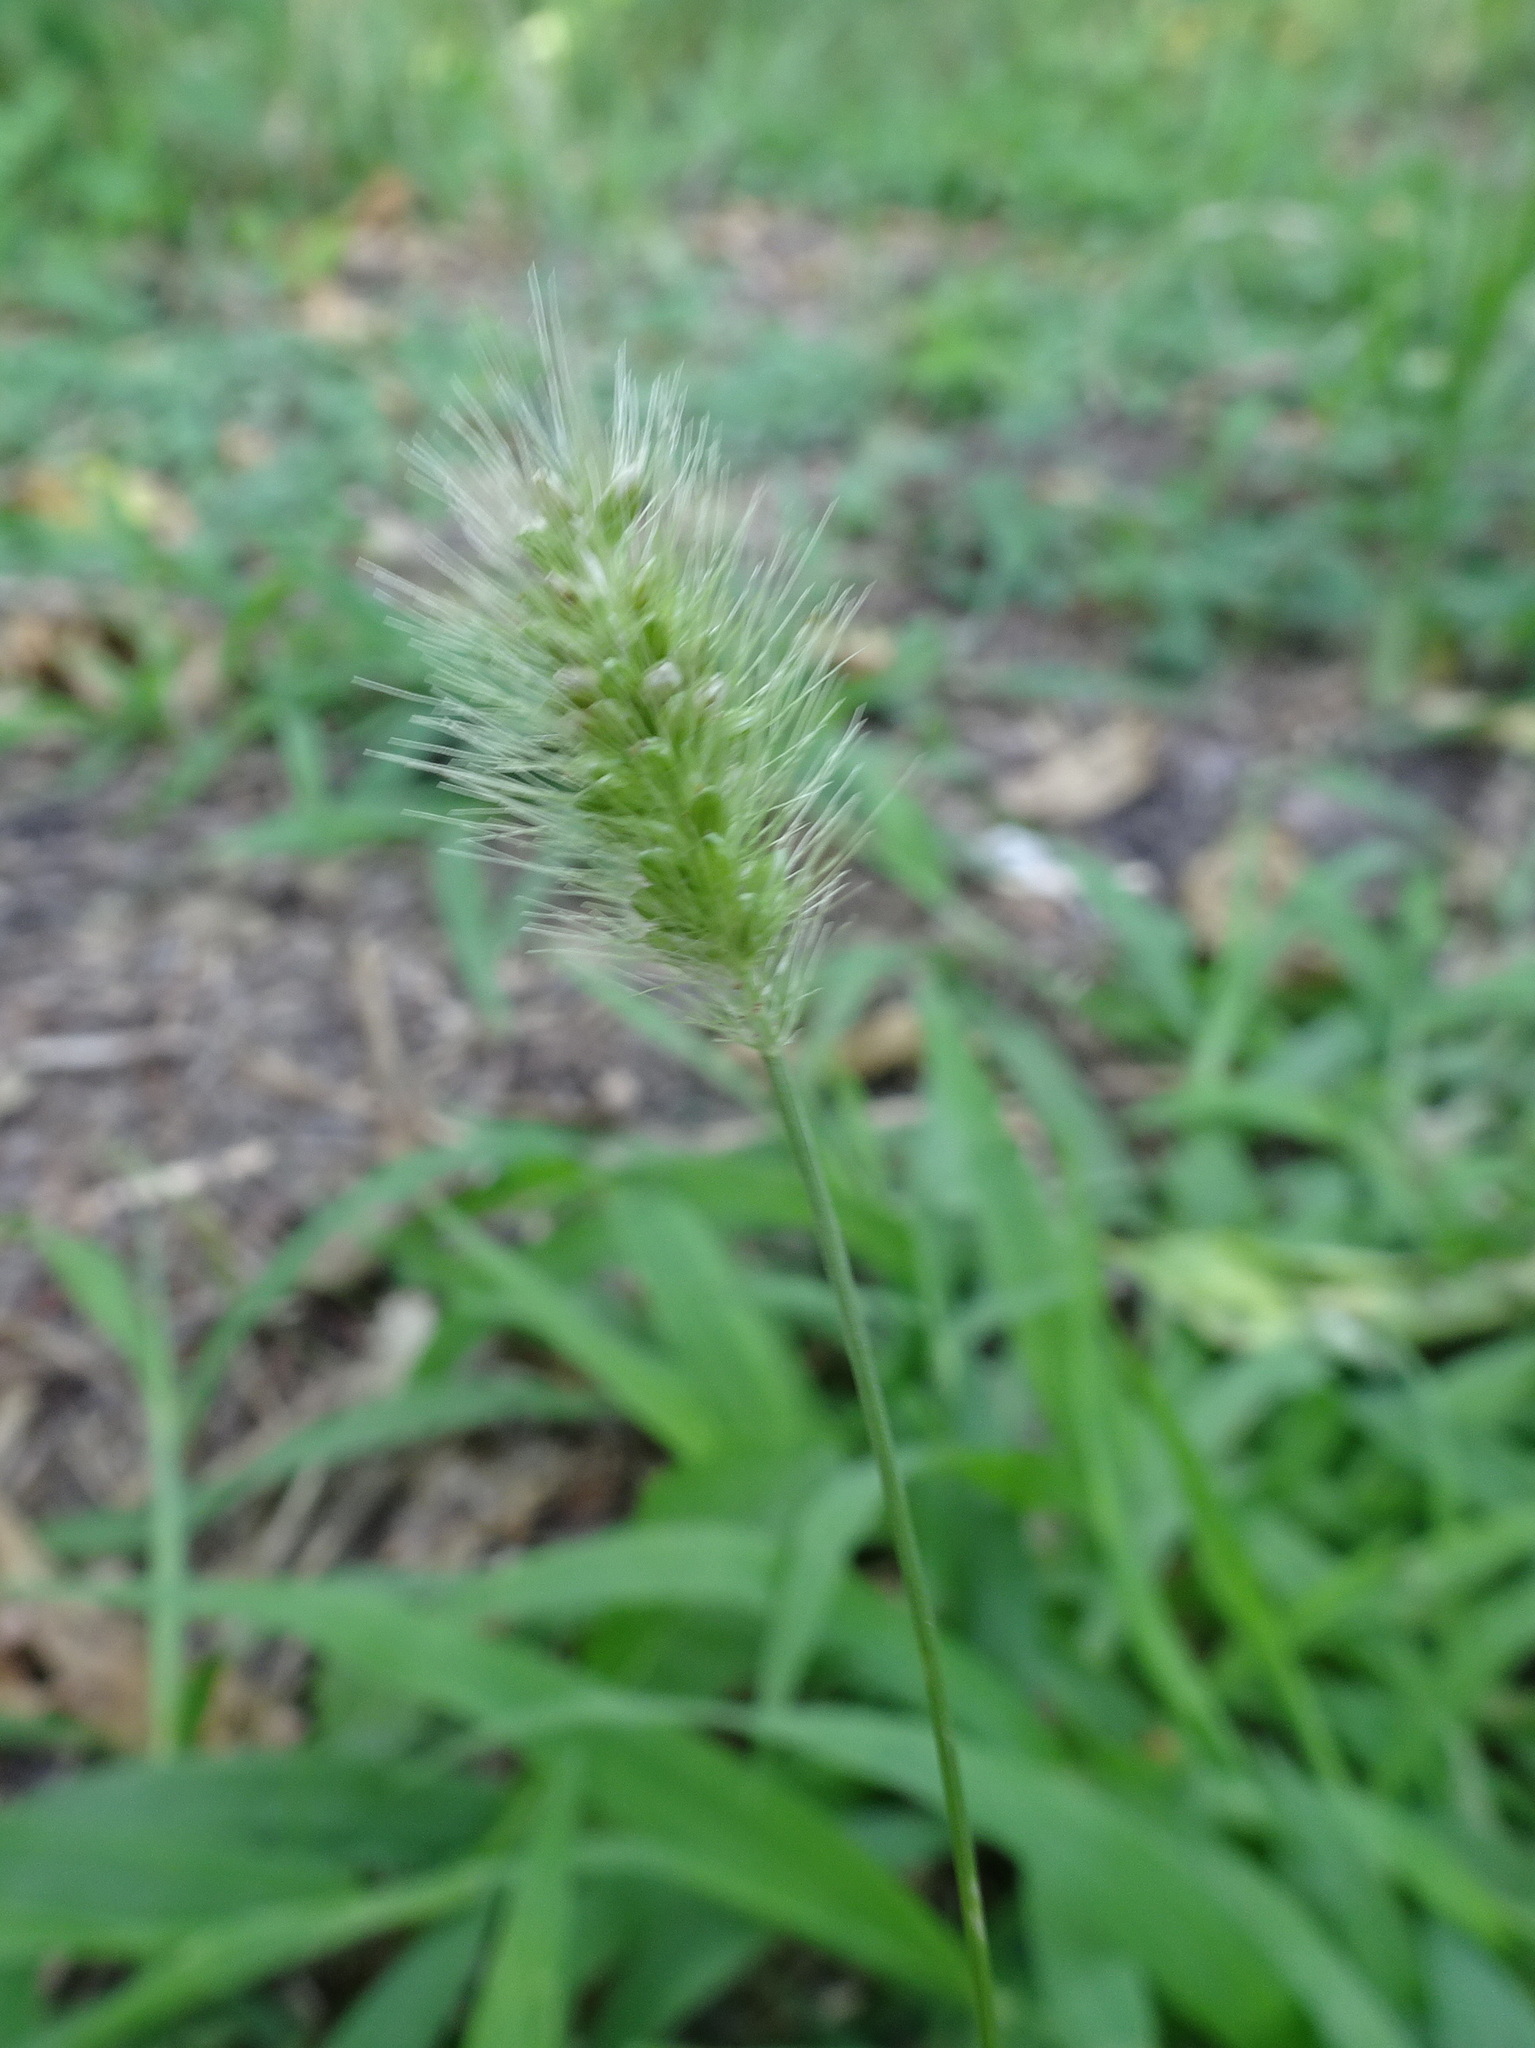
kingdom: Plantae
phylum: Tracheophyta
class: Liliopsida
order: Poales
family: Poaceae
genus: Setaria
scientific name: Setaria viridis
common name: Green bristlegrass
